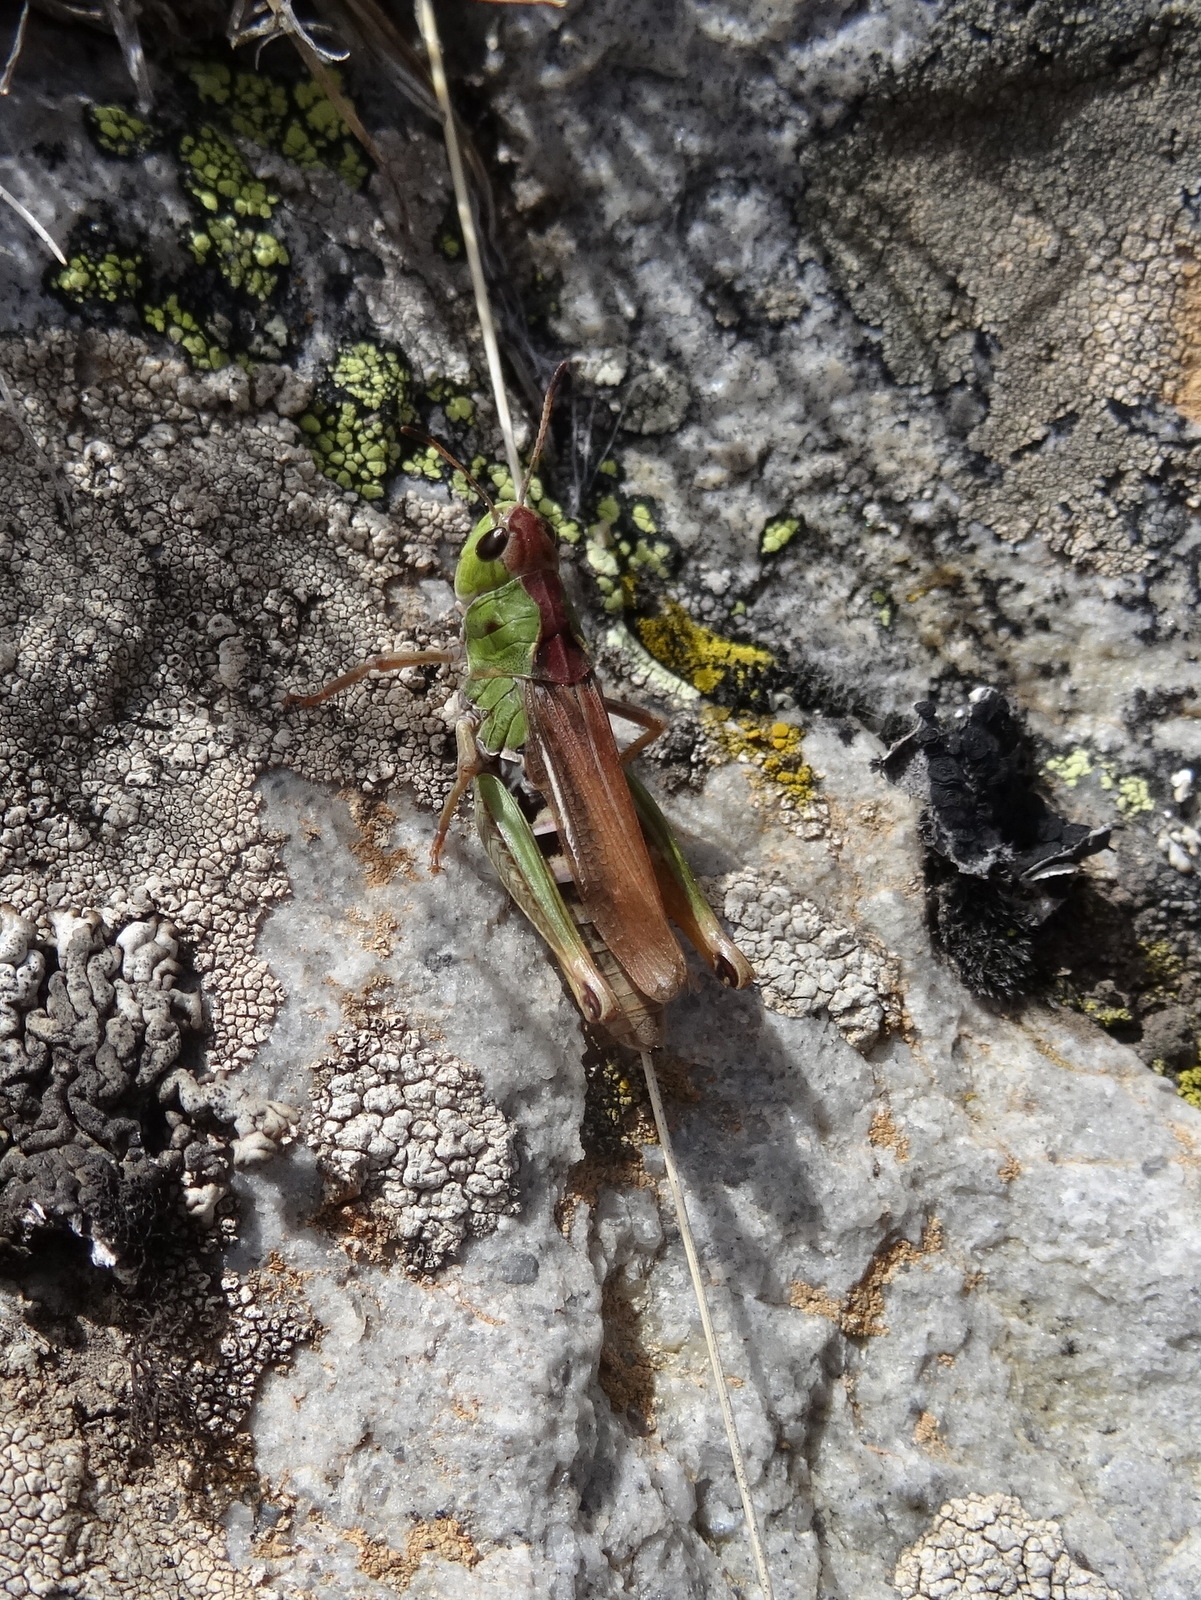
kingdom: Animalia
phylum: Arthropoda
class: Insecta
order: Orthoptera
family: Acrididae
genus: Gomphocerus
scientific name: Gomphocerus sibiricus
